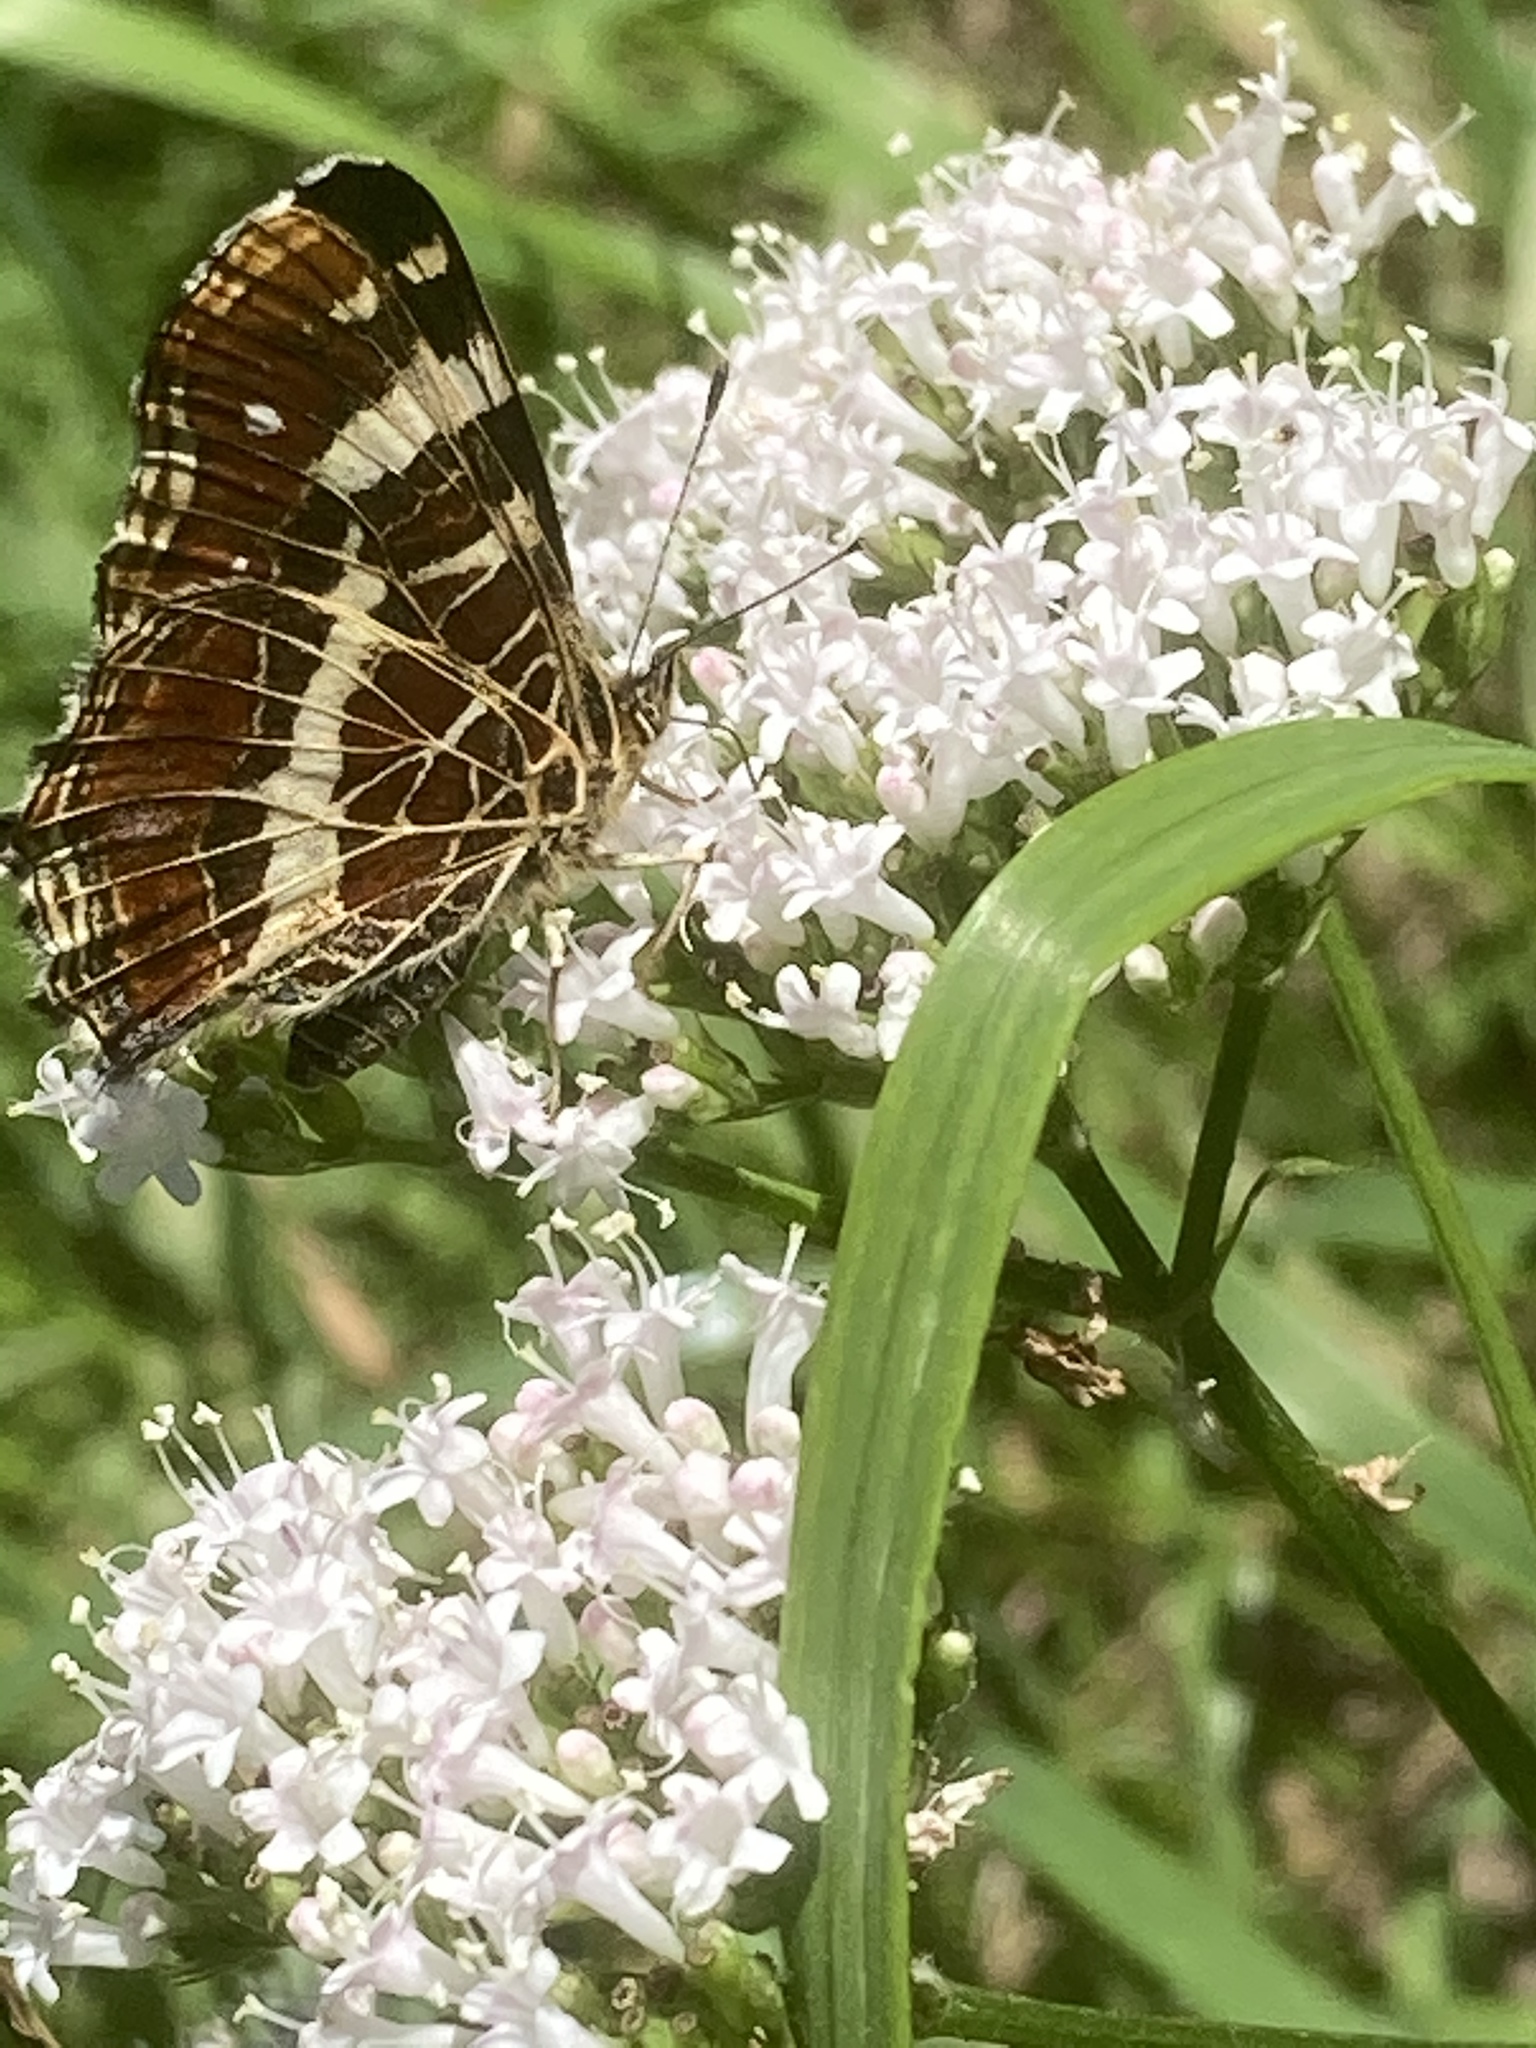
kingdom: Animalia
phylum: Arthropoda
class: Insecta
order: Lepidoptera
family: Nymphalidae
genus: Araschnia
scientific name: Araschnia levana
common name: Map butterfly
